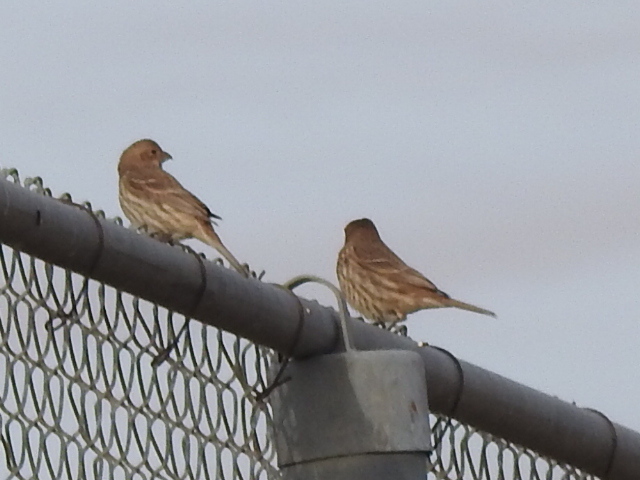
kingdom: Animalia
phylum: Chordata
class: Aves
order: Passeriformes
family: Fringillidae
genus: Haemorhous
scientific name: Haemorhous mexicanus
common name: House finch
